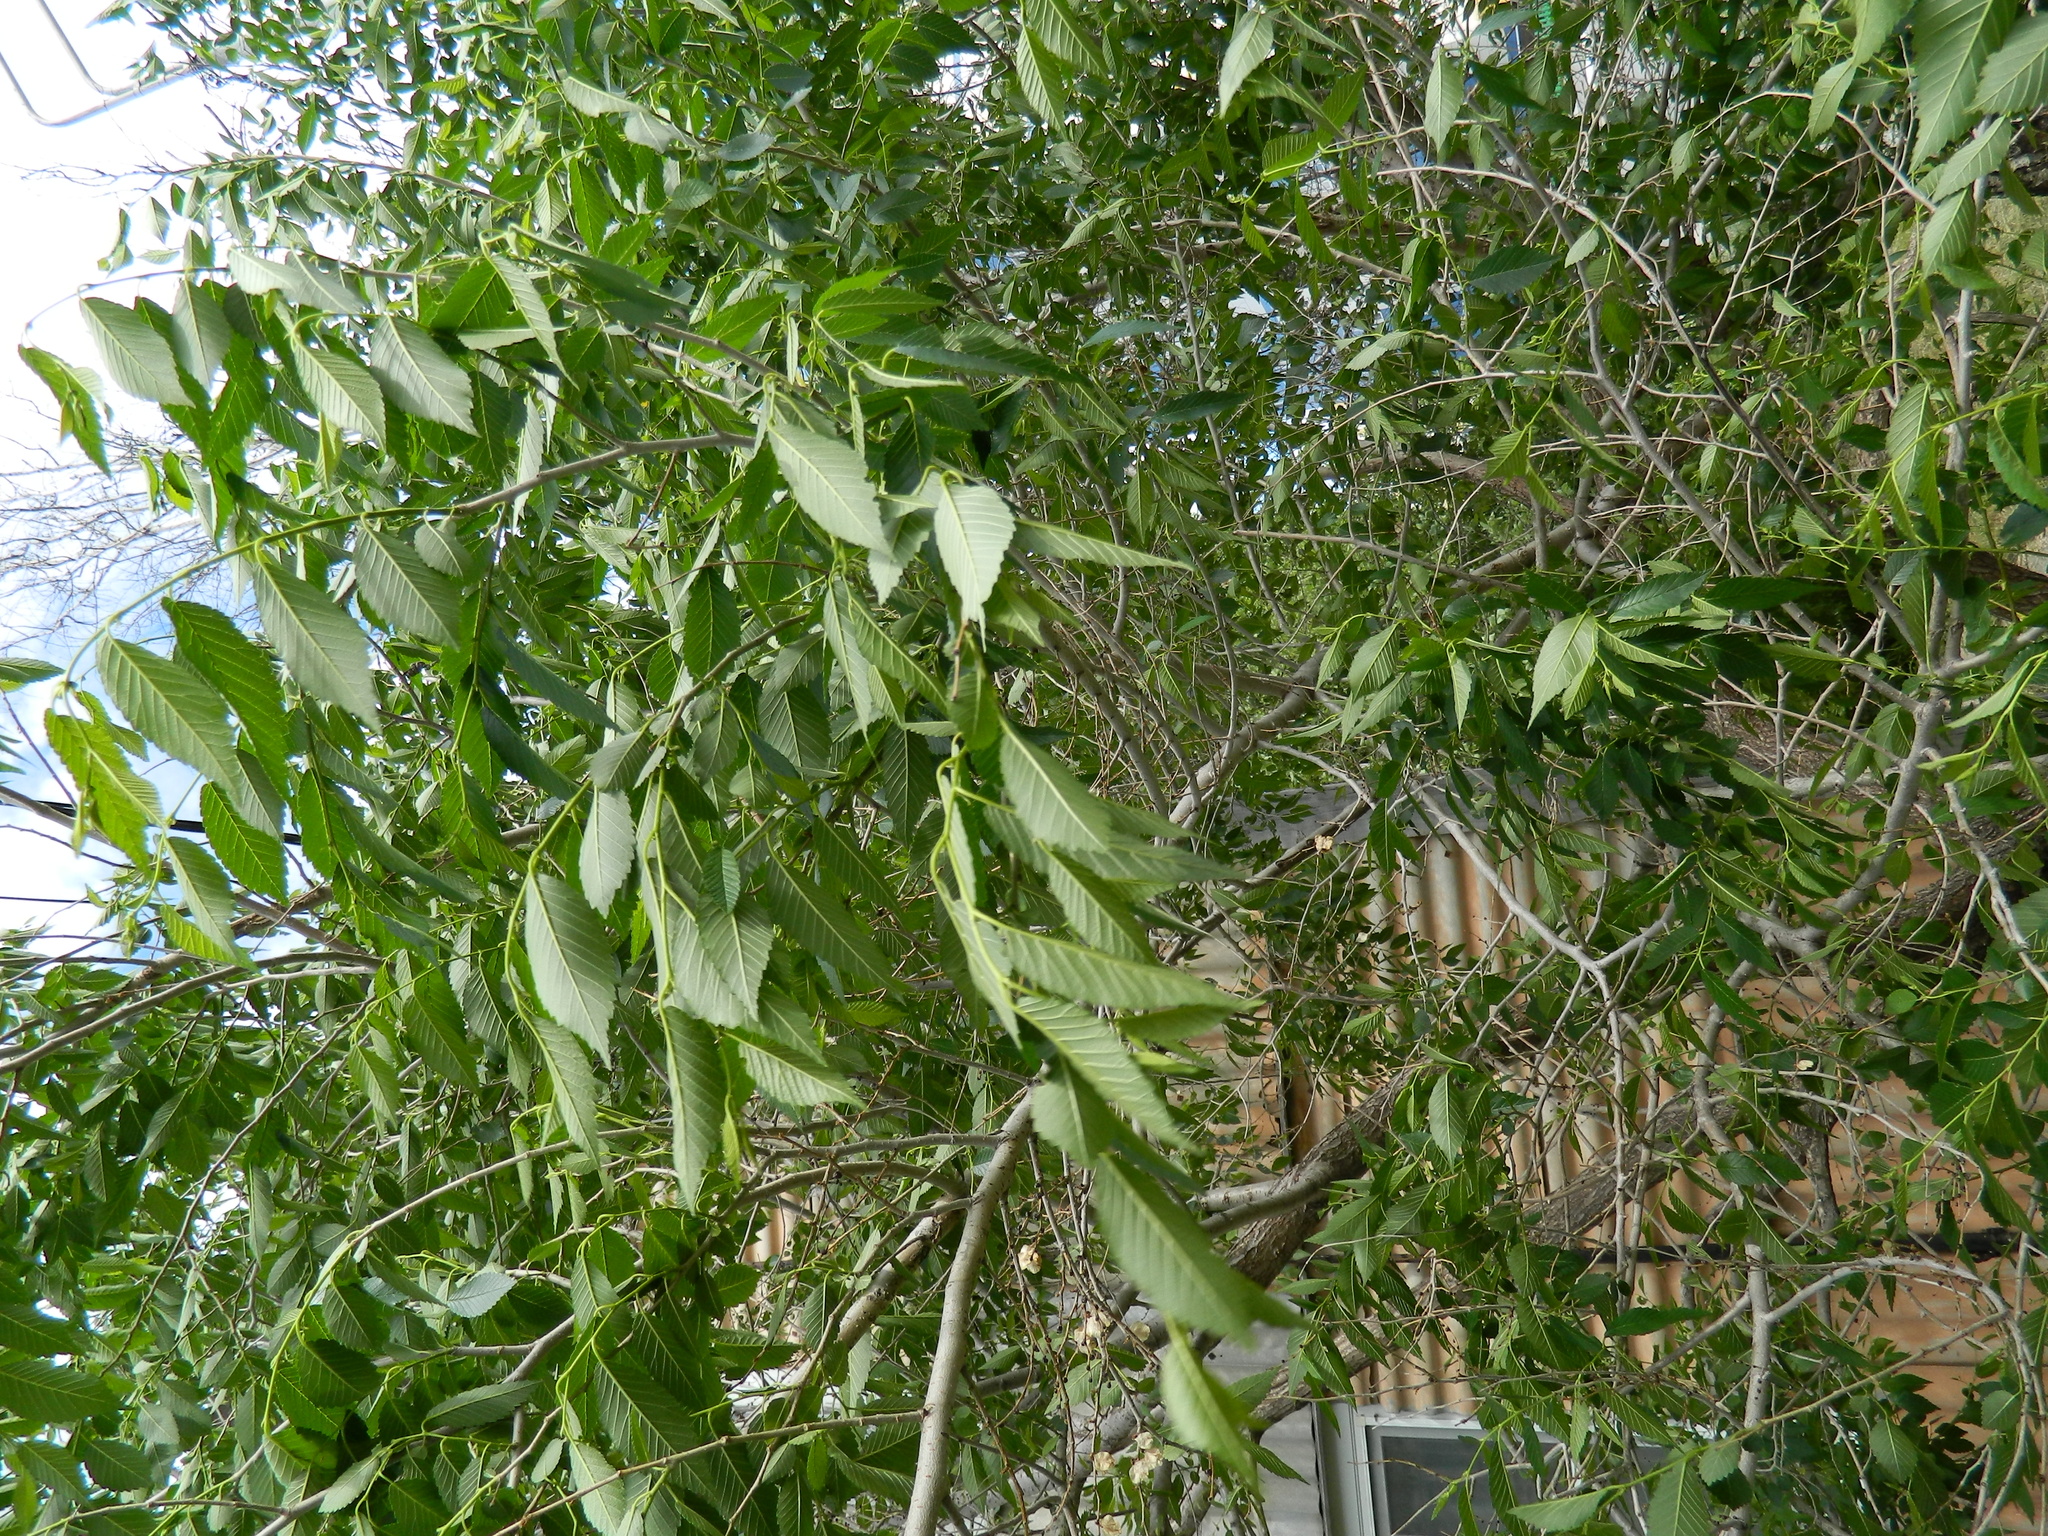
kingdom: Plantae
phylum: Tracheophyta
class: Magnoliopsida
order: Rosales
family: Ulmaceae
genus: Ulmus
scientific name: Ulmus pumila
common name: Siberian elm
